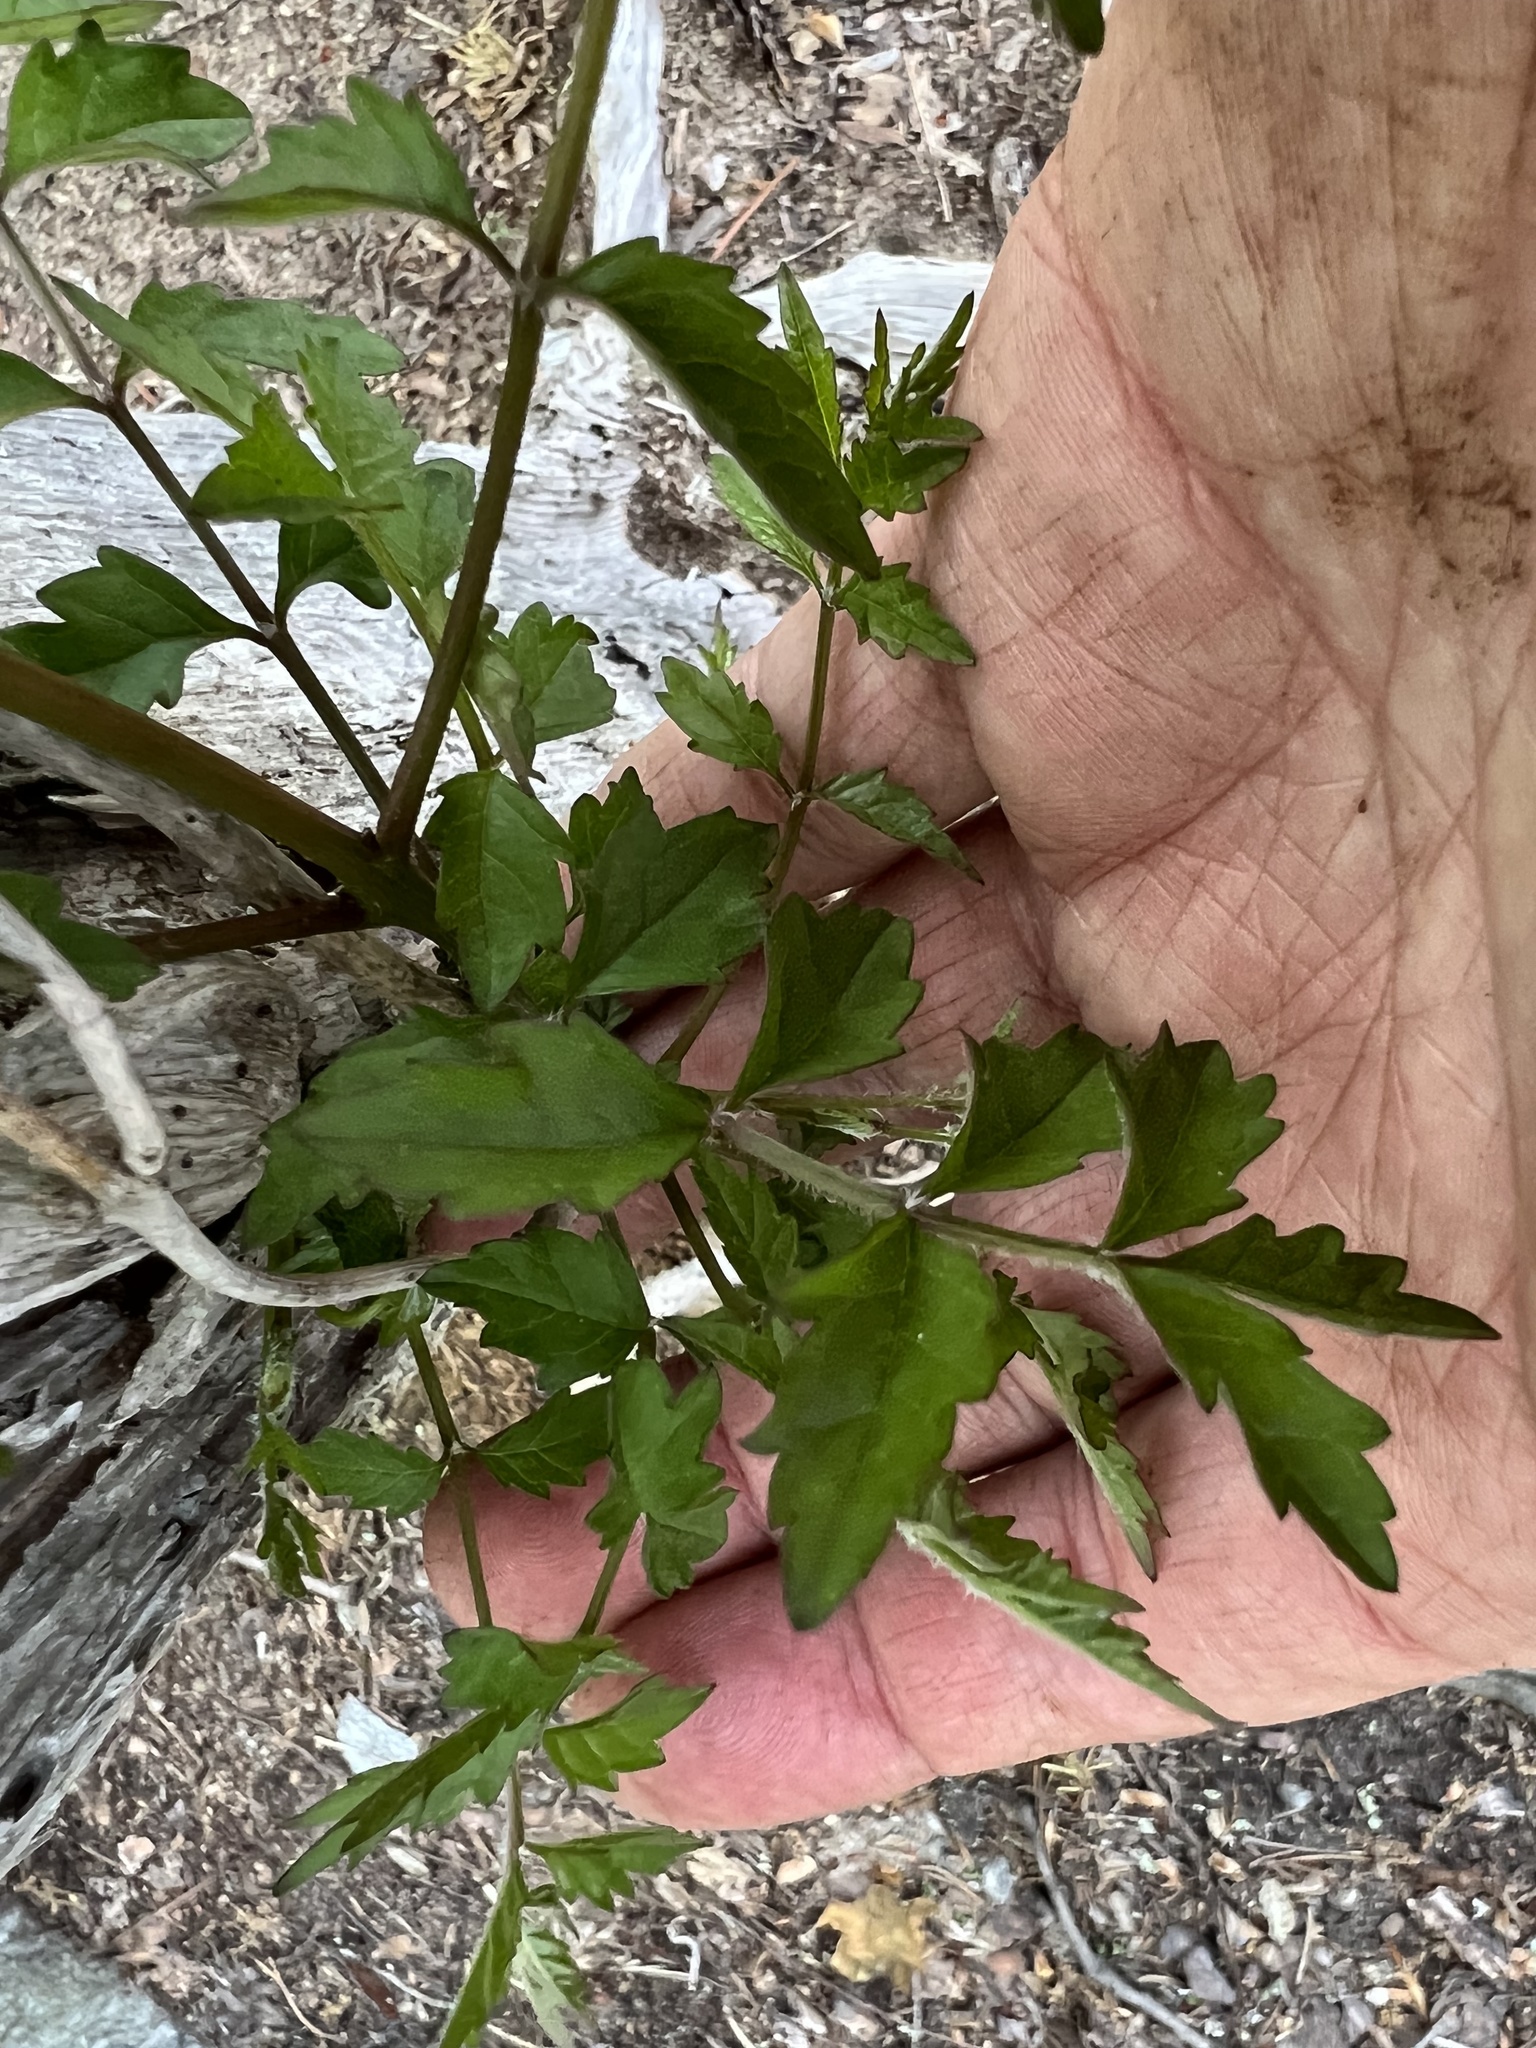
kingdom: Plantae
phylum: Tracheophyta
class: Magnoliopsida
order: Lamiales
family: Bignoniaceae
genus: Campsis
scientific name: Campsis radicans
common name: Trumpet-creeper
